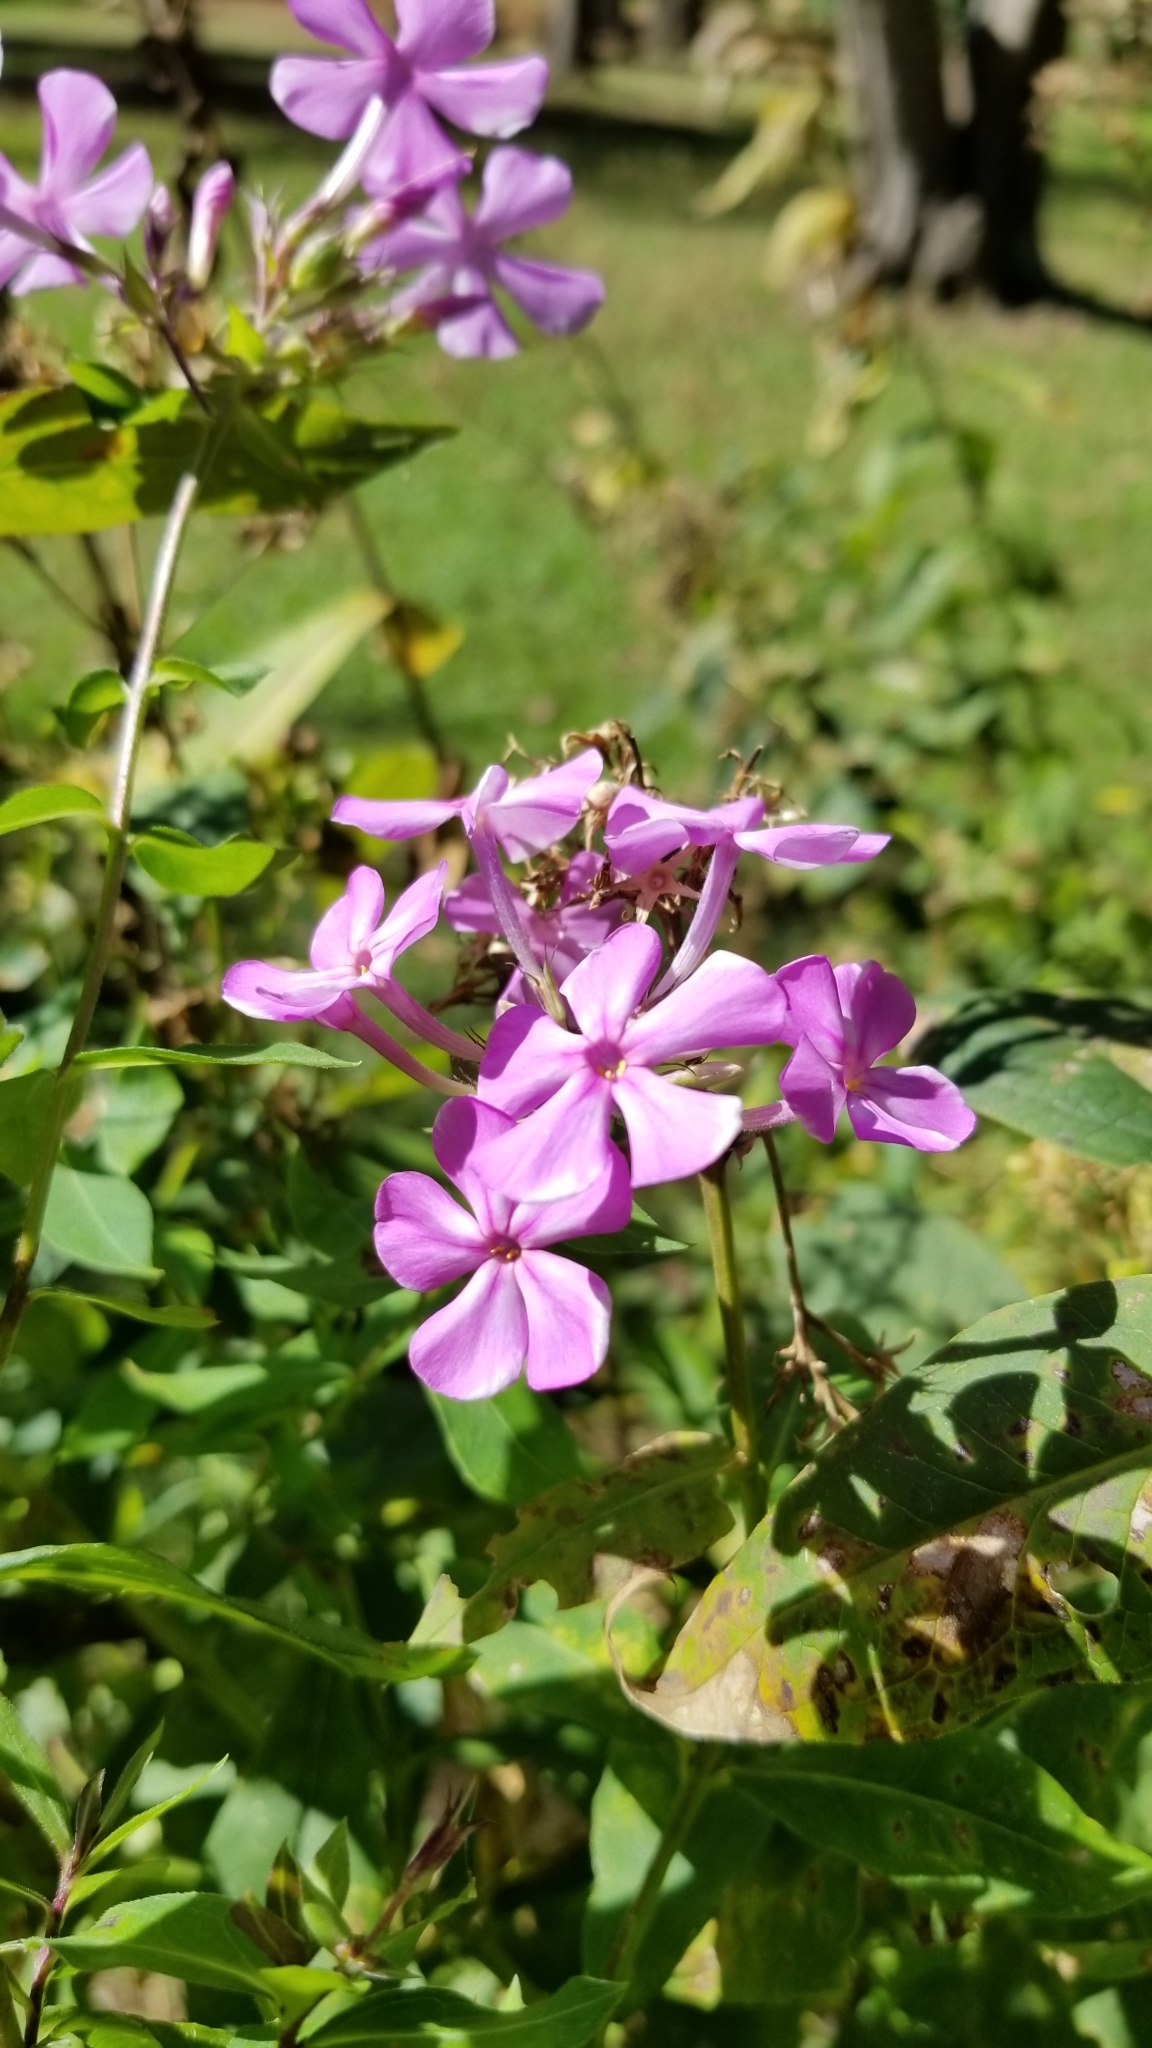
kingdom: Plantae
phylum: Tracheophyta
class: Magnoliopsida
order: Ericales
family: Polemoniaceae
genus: Phlox
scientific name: Phlox paniculata
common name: Fall phlox
